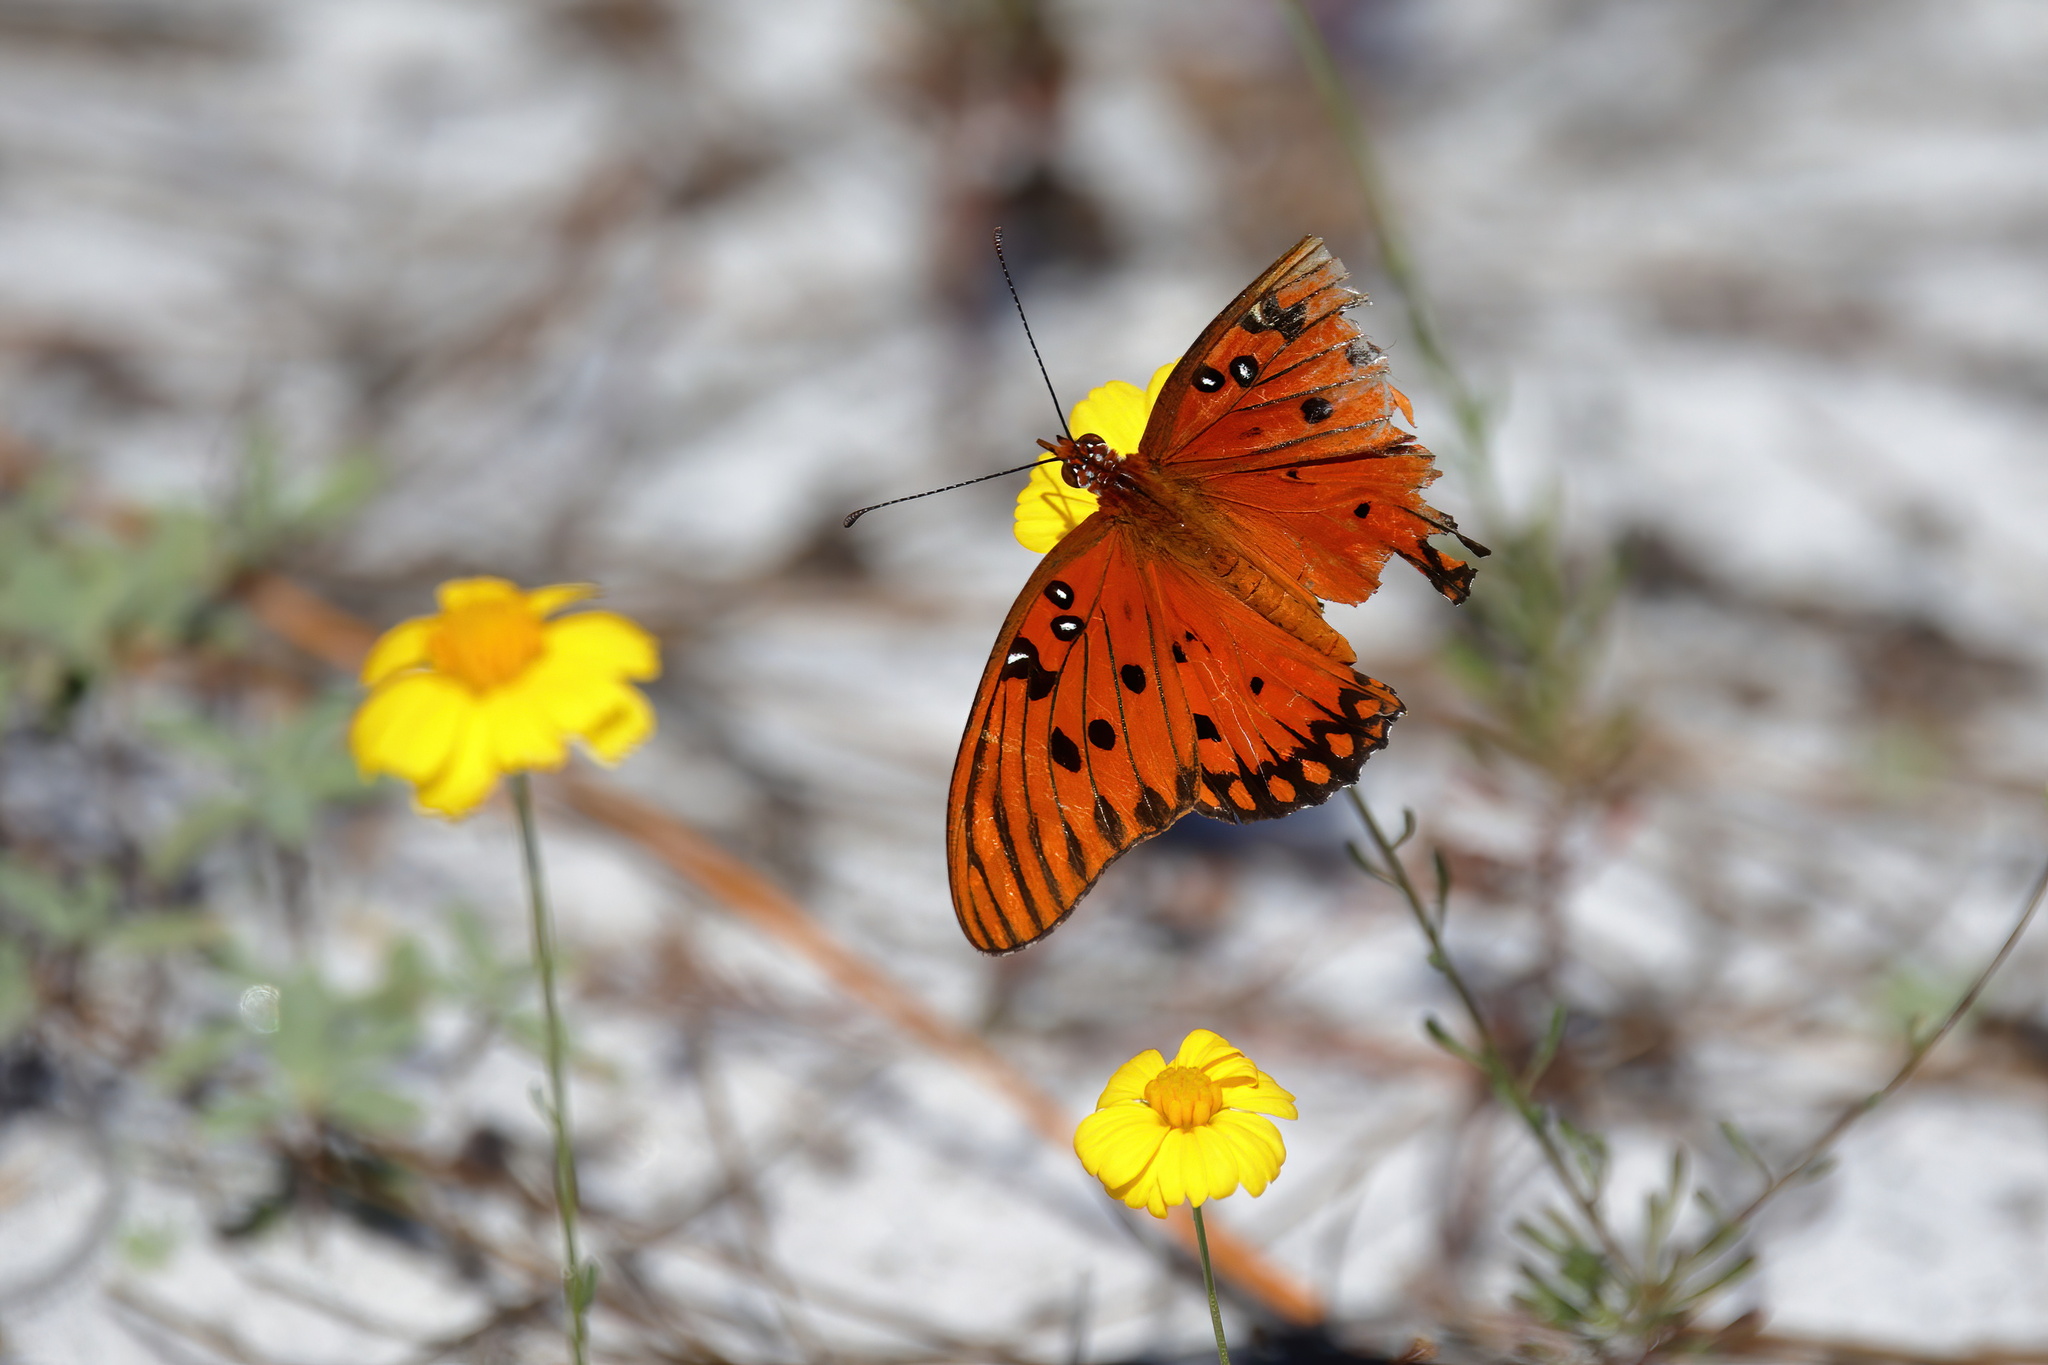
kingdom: Animalia
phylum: Arthropoda
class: Insecta
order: Lepidoptera
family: Nymphalidae
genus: Dione
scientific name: Dione vanillae
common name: Gulf fritillary
